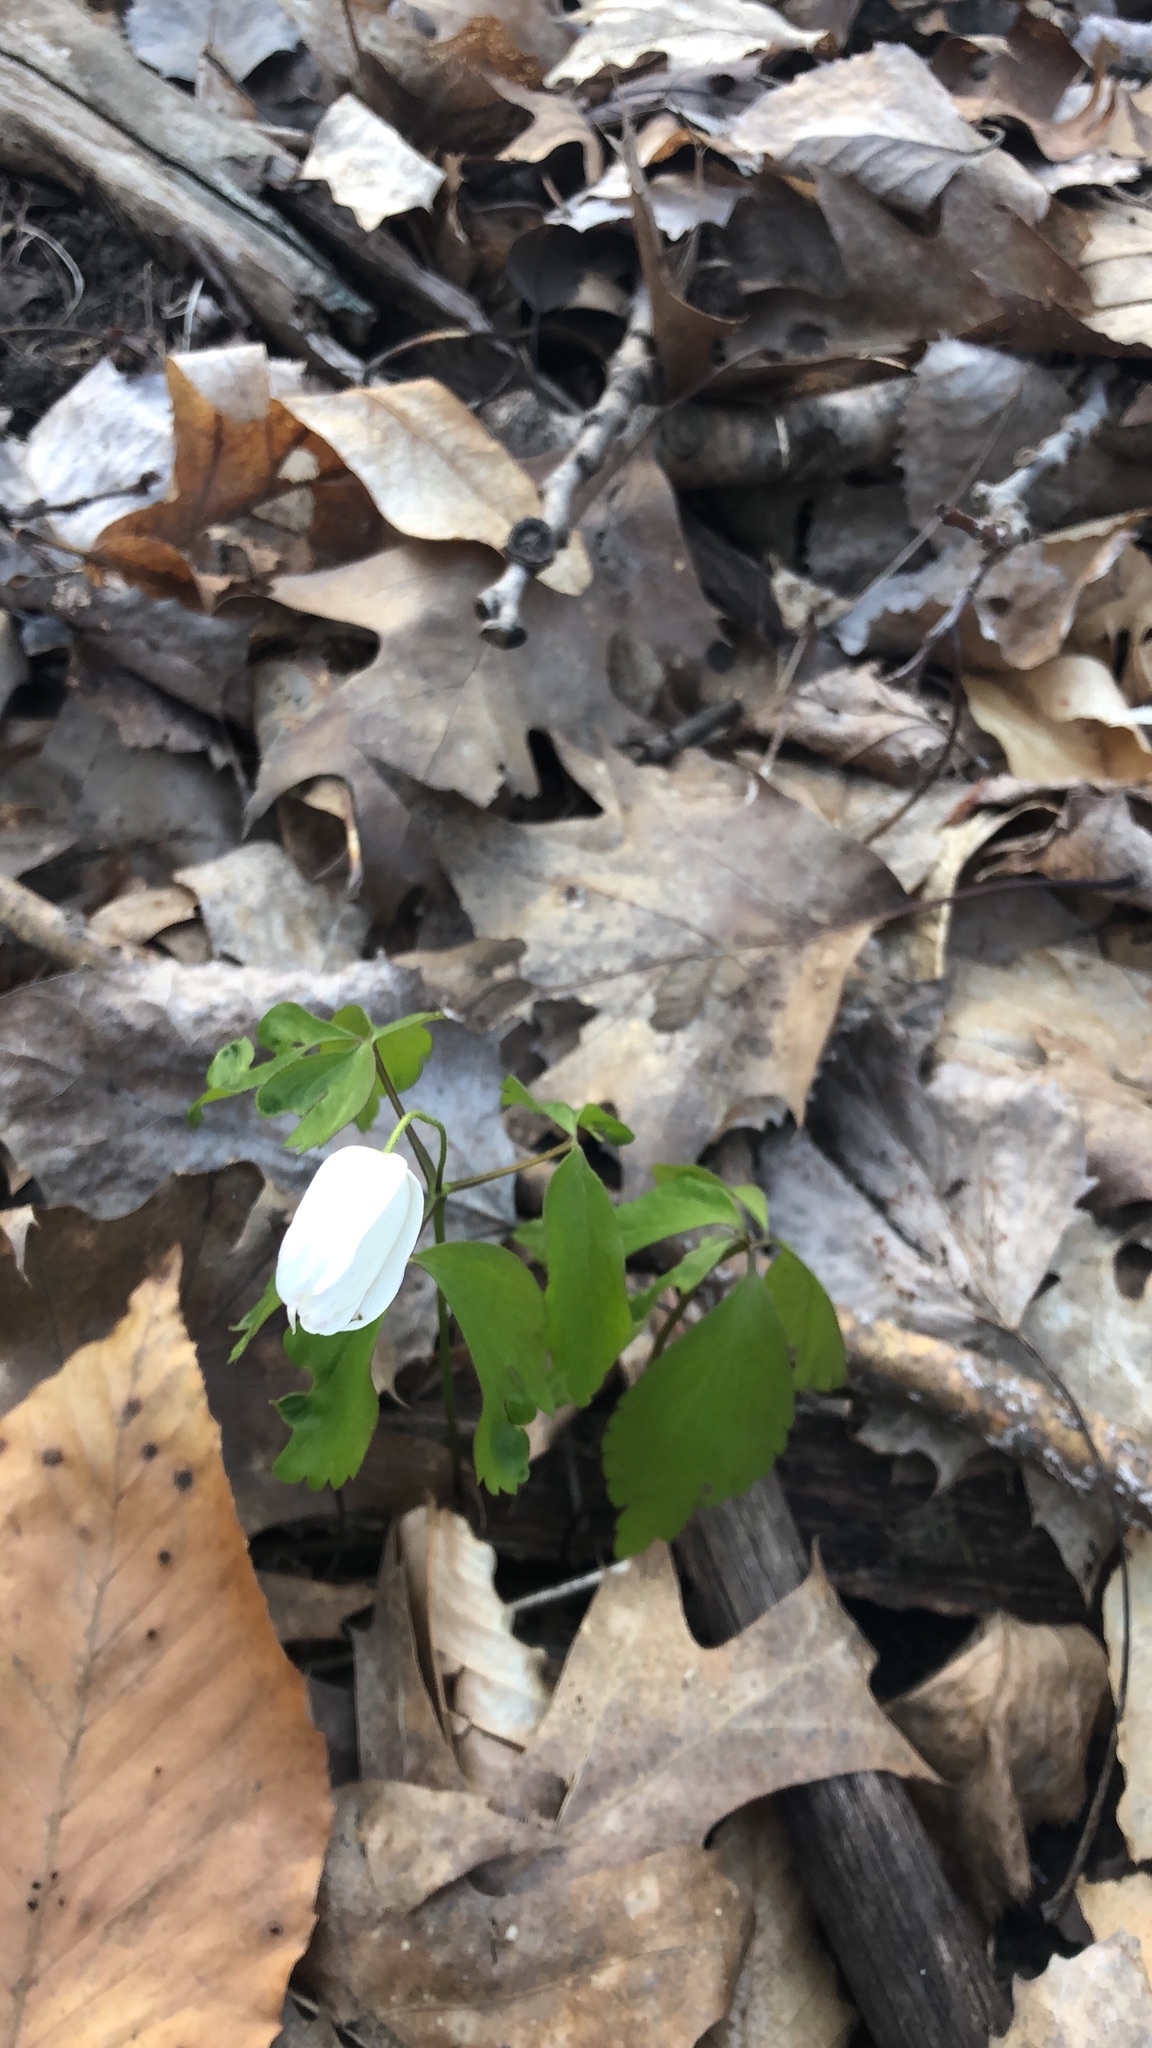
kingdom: Plantae
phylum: Tracheophyta
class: Magnoliopsida
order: Ranunculales
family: Ranunculaceae
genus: Anemone
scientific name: Anemone quinquefolia
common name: Wood anemone
